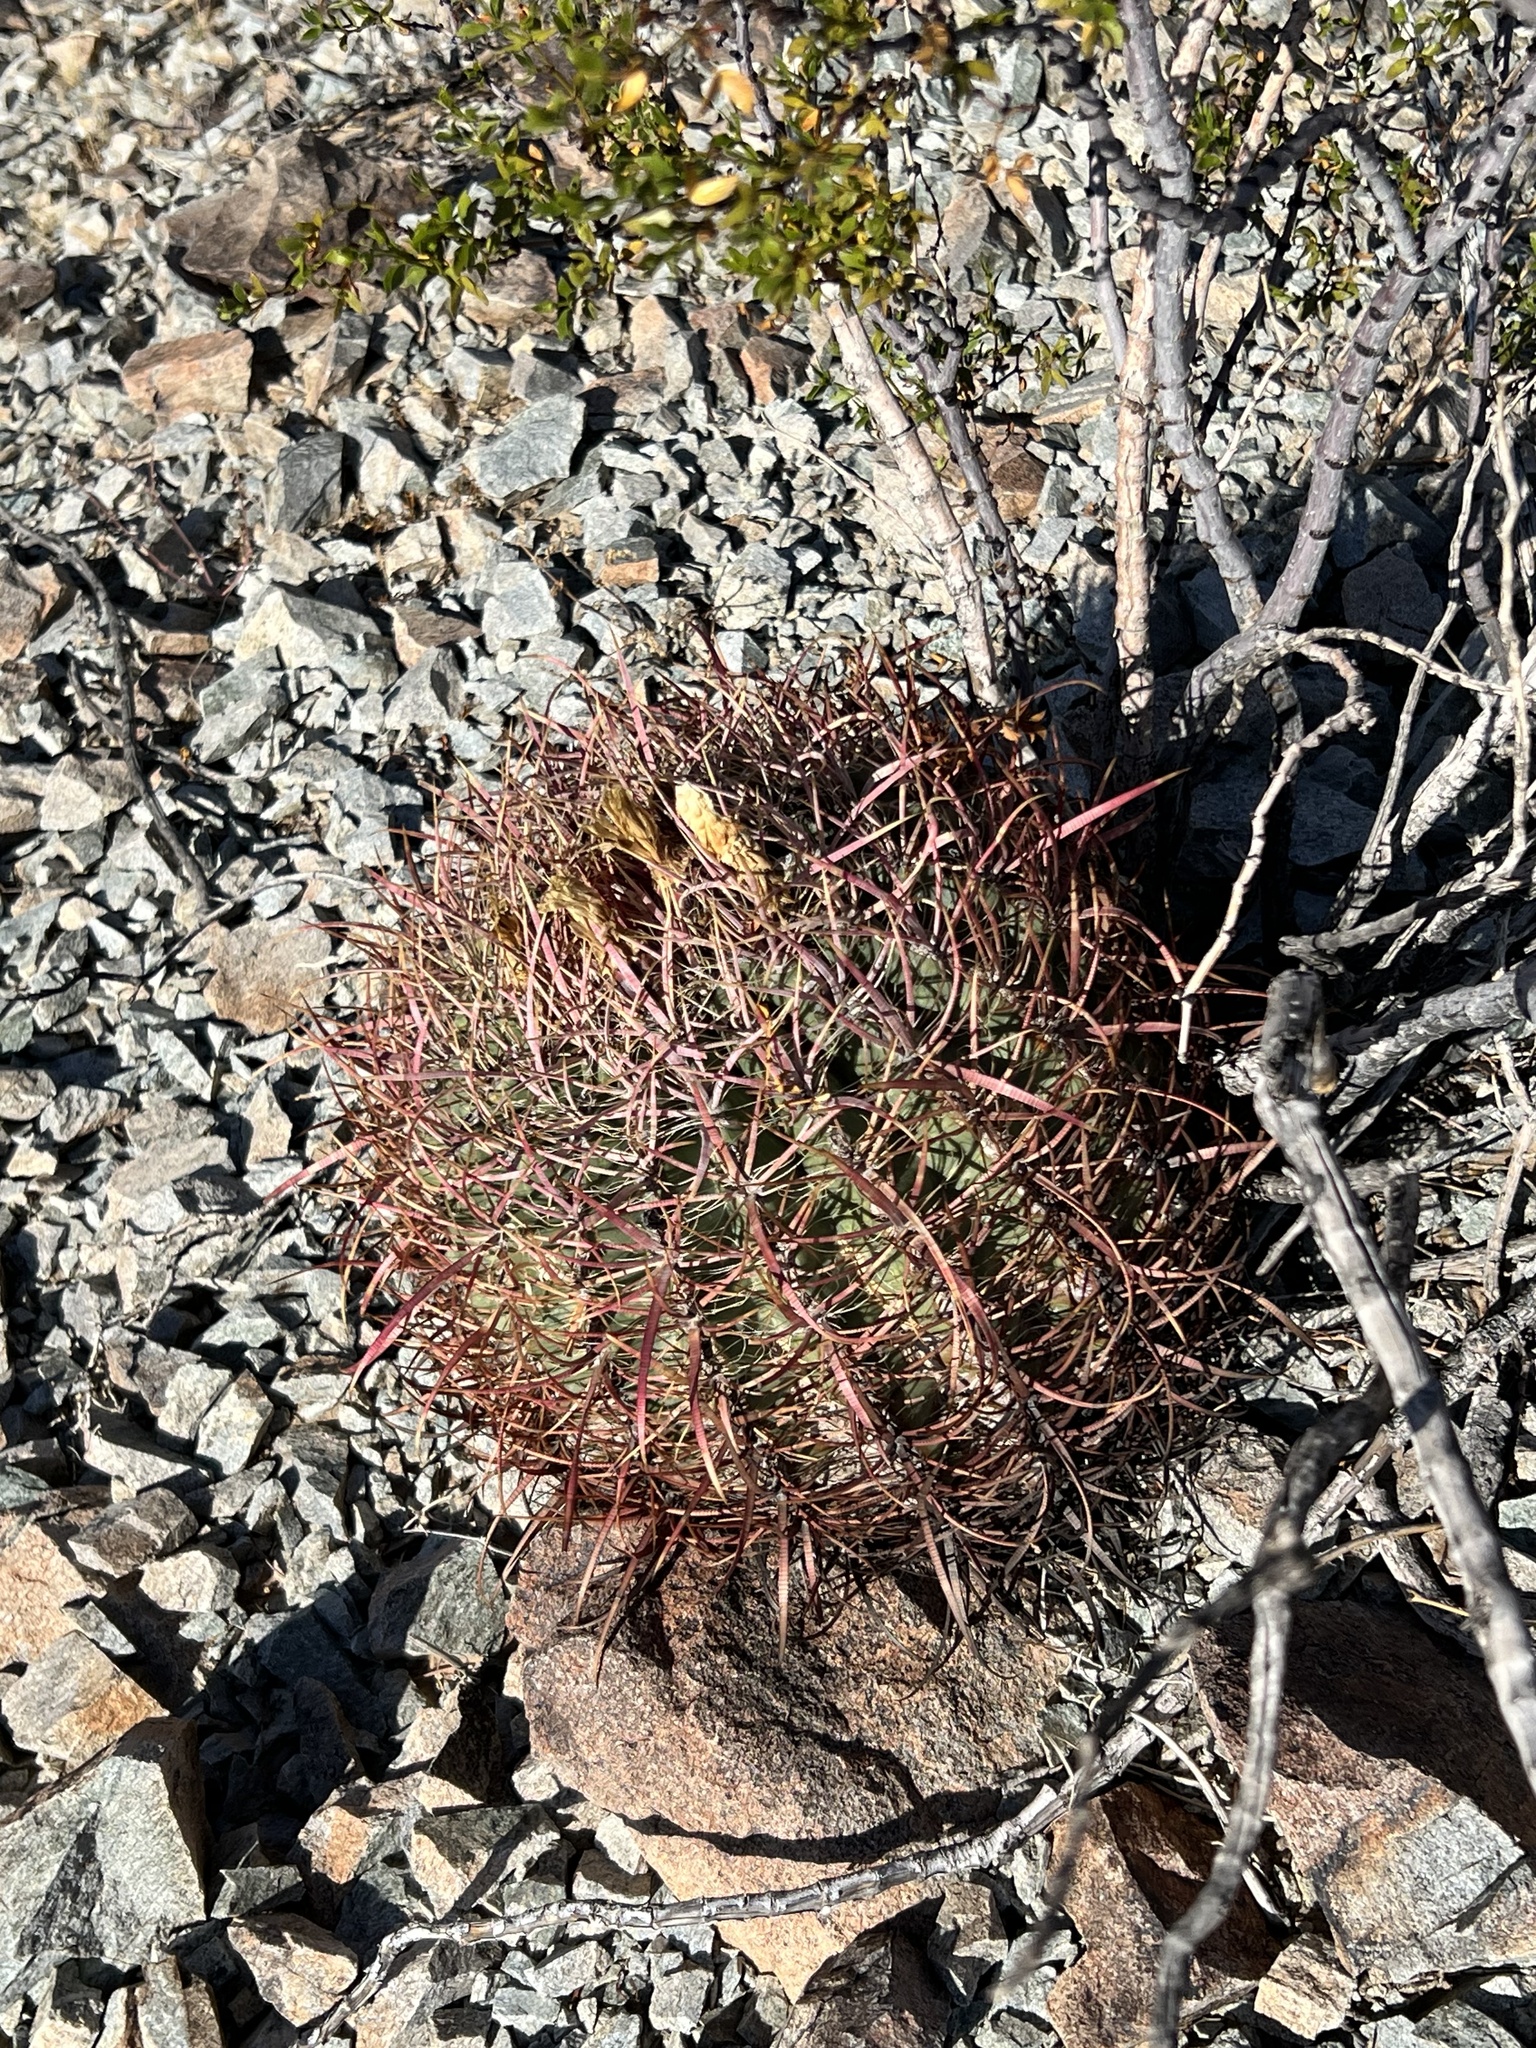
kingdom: Plantae
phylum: Tracheophyta
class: Magnoliopsida
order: Caryophyllales
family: Cactaceae
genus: Ferocactus
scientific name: Ferocactus cylindraceus
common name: California barrel cactus
